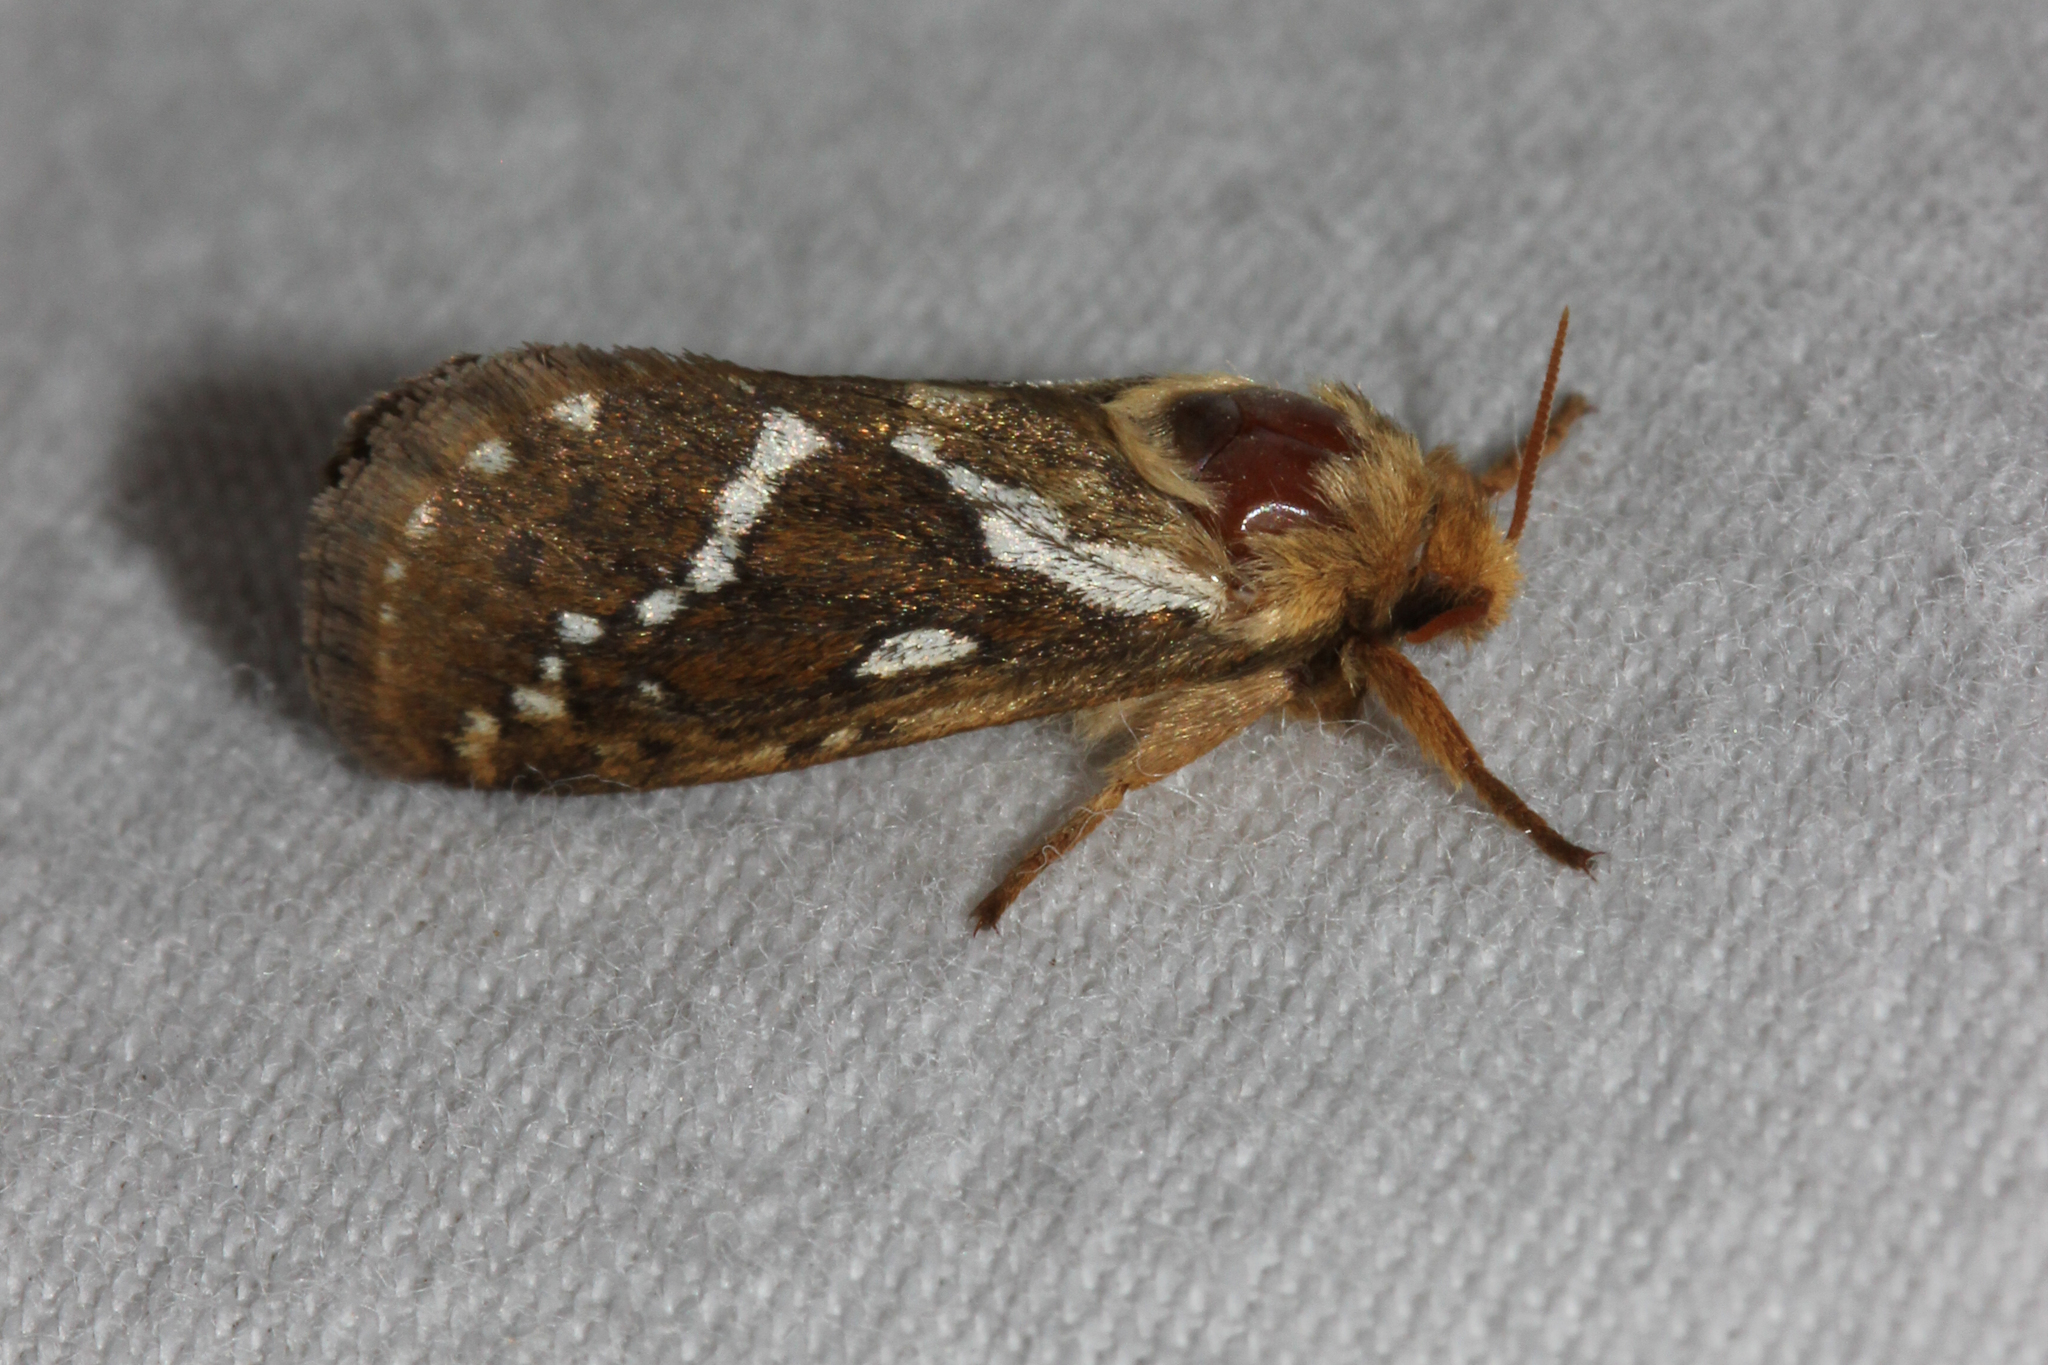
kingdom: Animalia
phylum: Arthropoda
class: Insecta
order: Lepidoptera
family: Hepialidae
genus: Korscheltellus
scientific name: Korscheltellus lupulina
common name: Common swift
